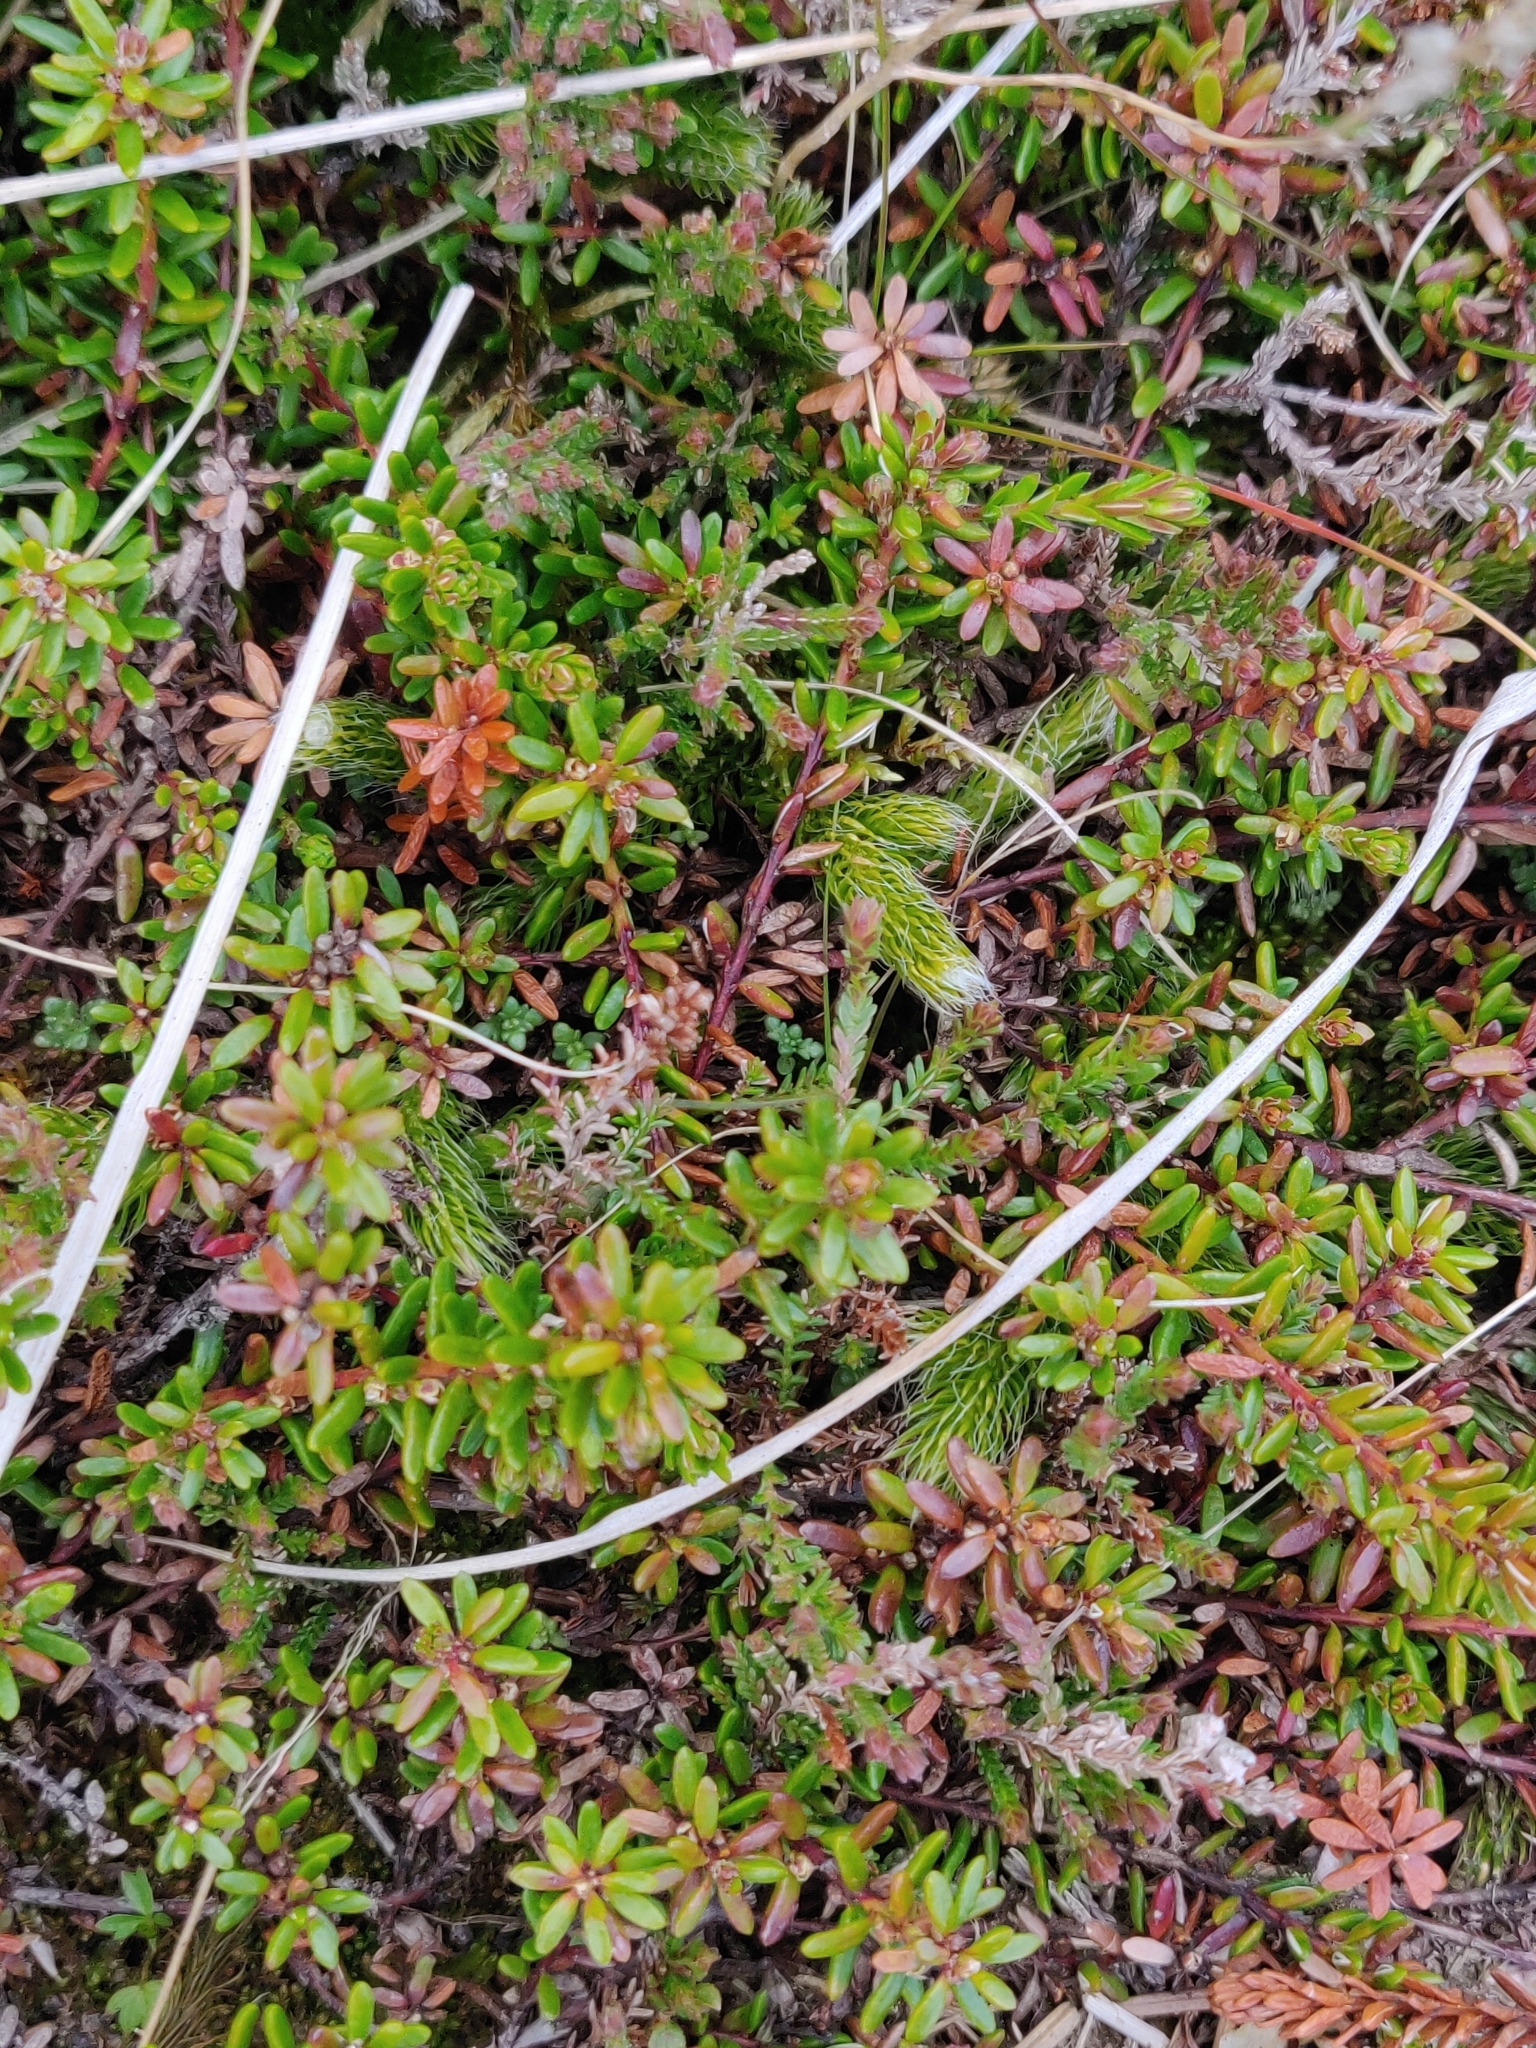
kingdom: Plantae
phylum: Tracheophyta
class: Magnoliopsida
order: Ericales
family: Ericaceae
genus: Empetrum
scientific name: Empetrum nigrum
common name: Black crowberry
